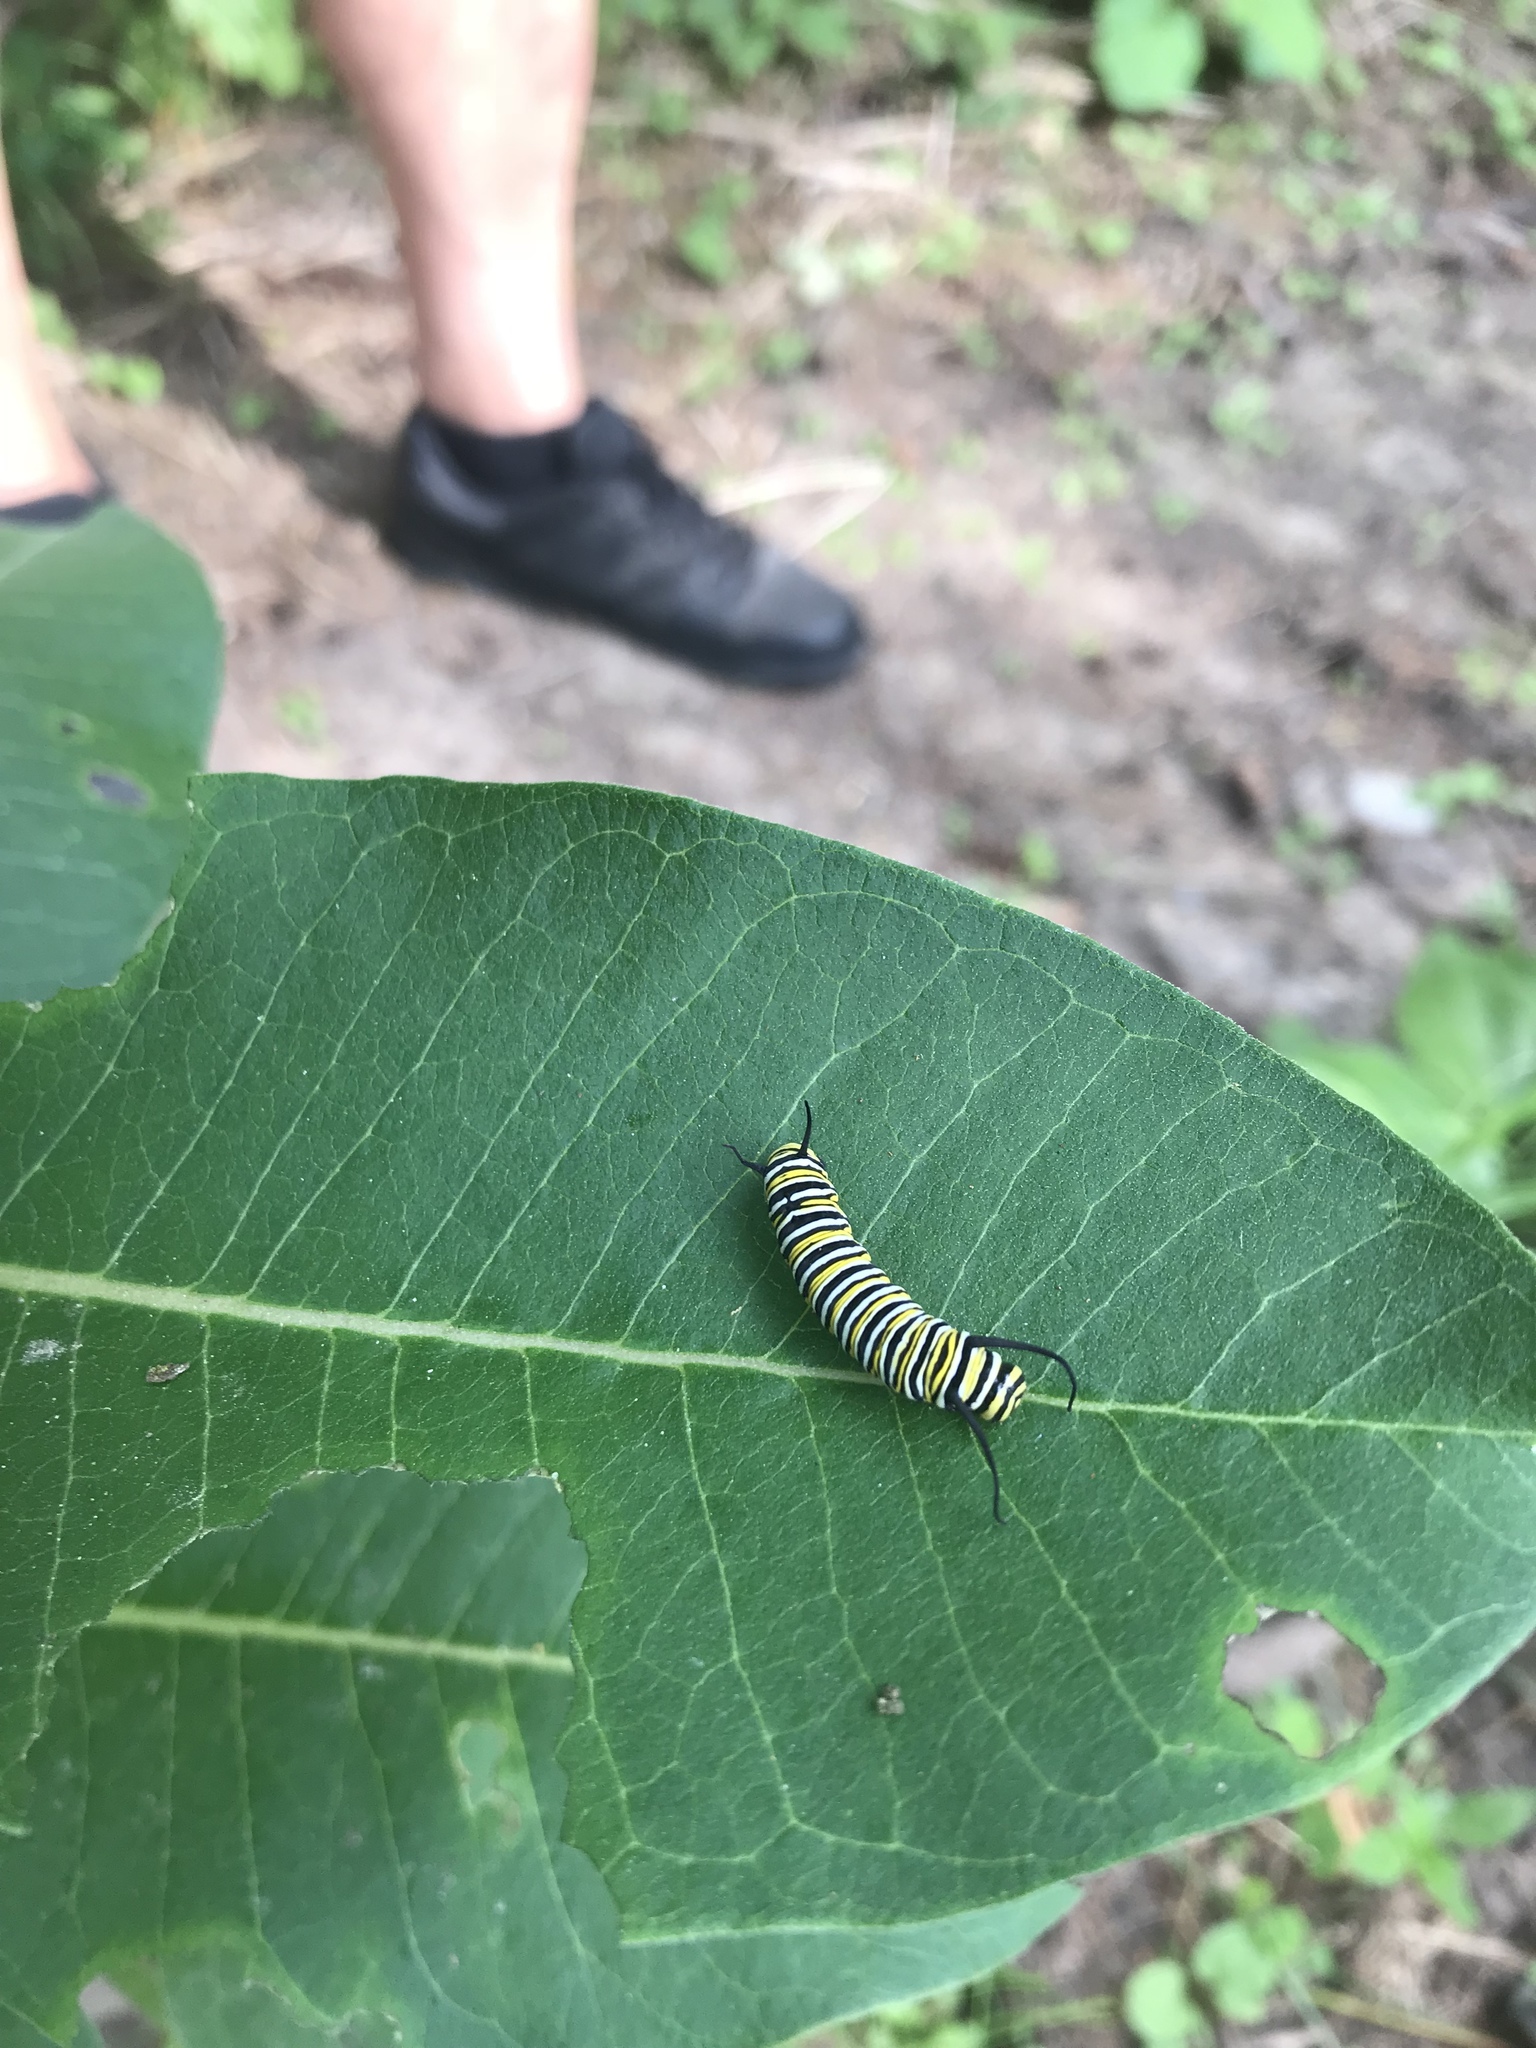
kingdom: Animalia
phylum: Arthropoda
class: Insecta
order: Lepidoptera
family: Nymphalidae
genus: Danaus
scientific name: Danaus plexippus
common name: Monarch
